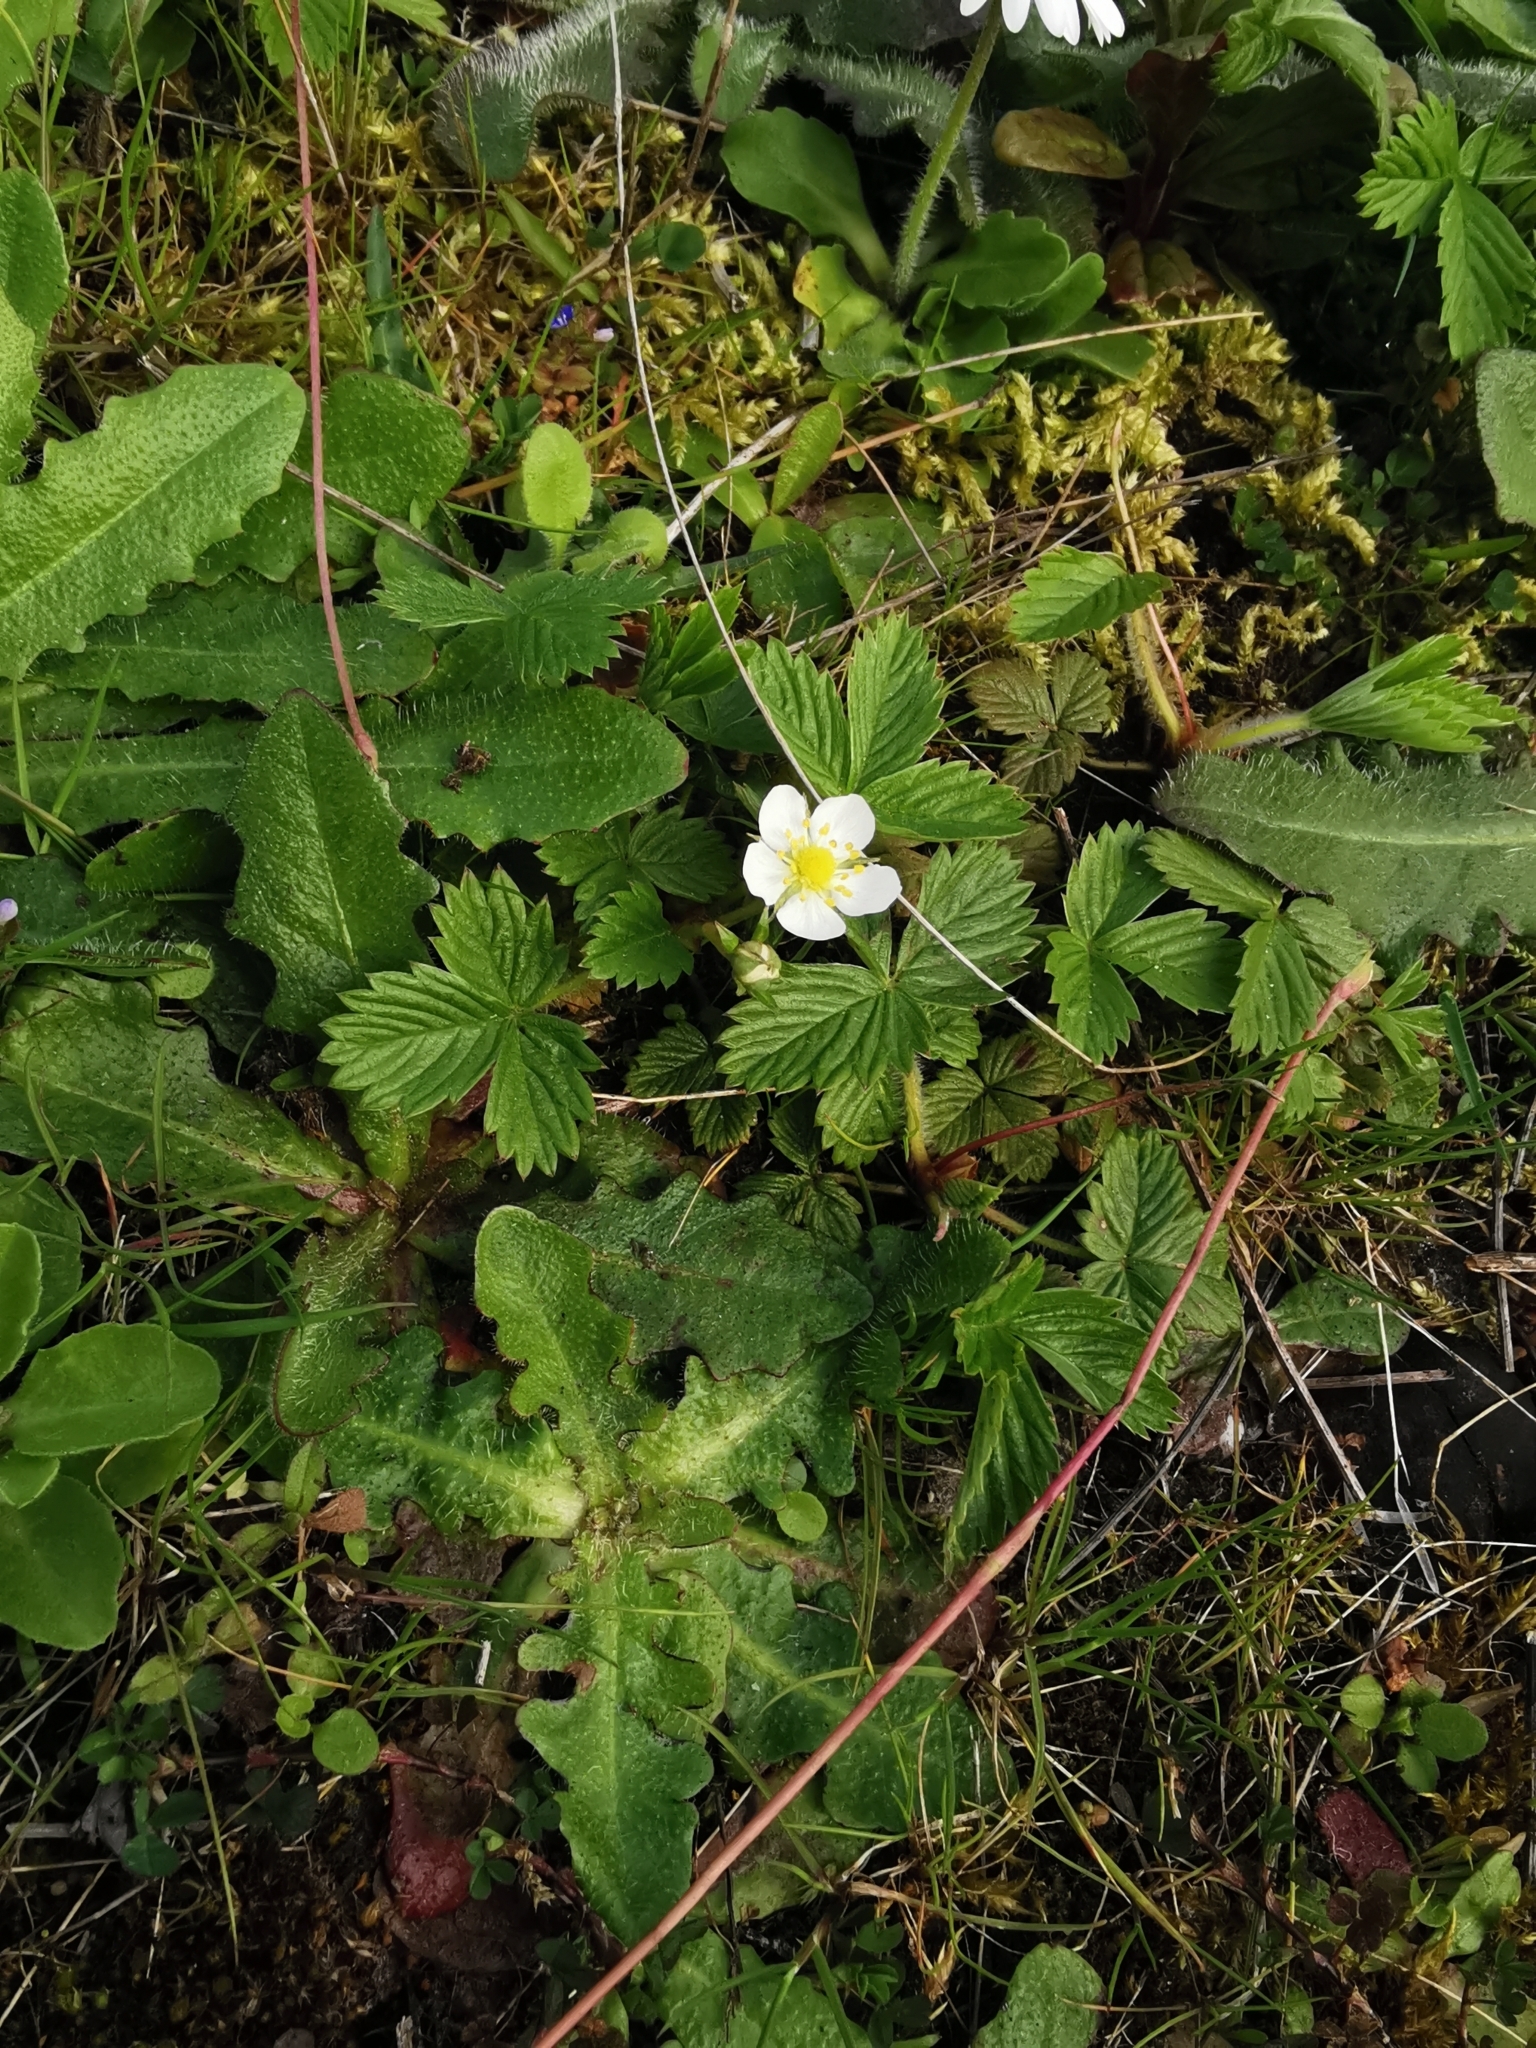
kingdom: Plantae
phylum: Tracheophyta
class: Magnoliopsida
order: Rosales
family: Rosaceae
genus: Fragaria
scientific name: Fragaria vesca
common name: Wild strawberry
